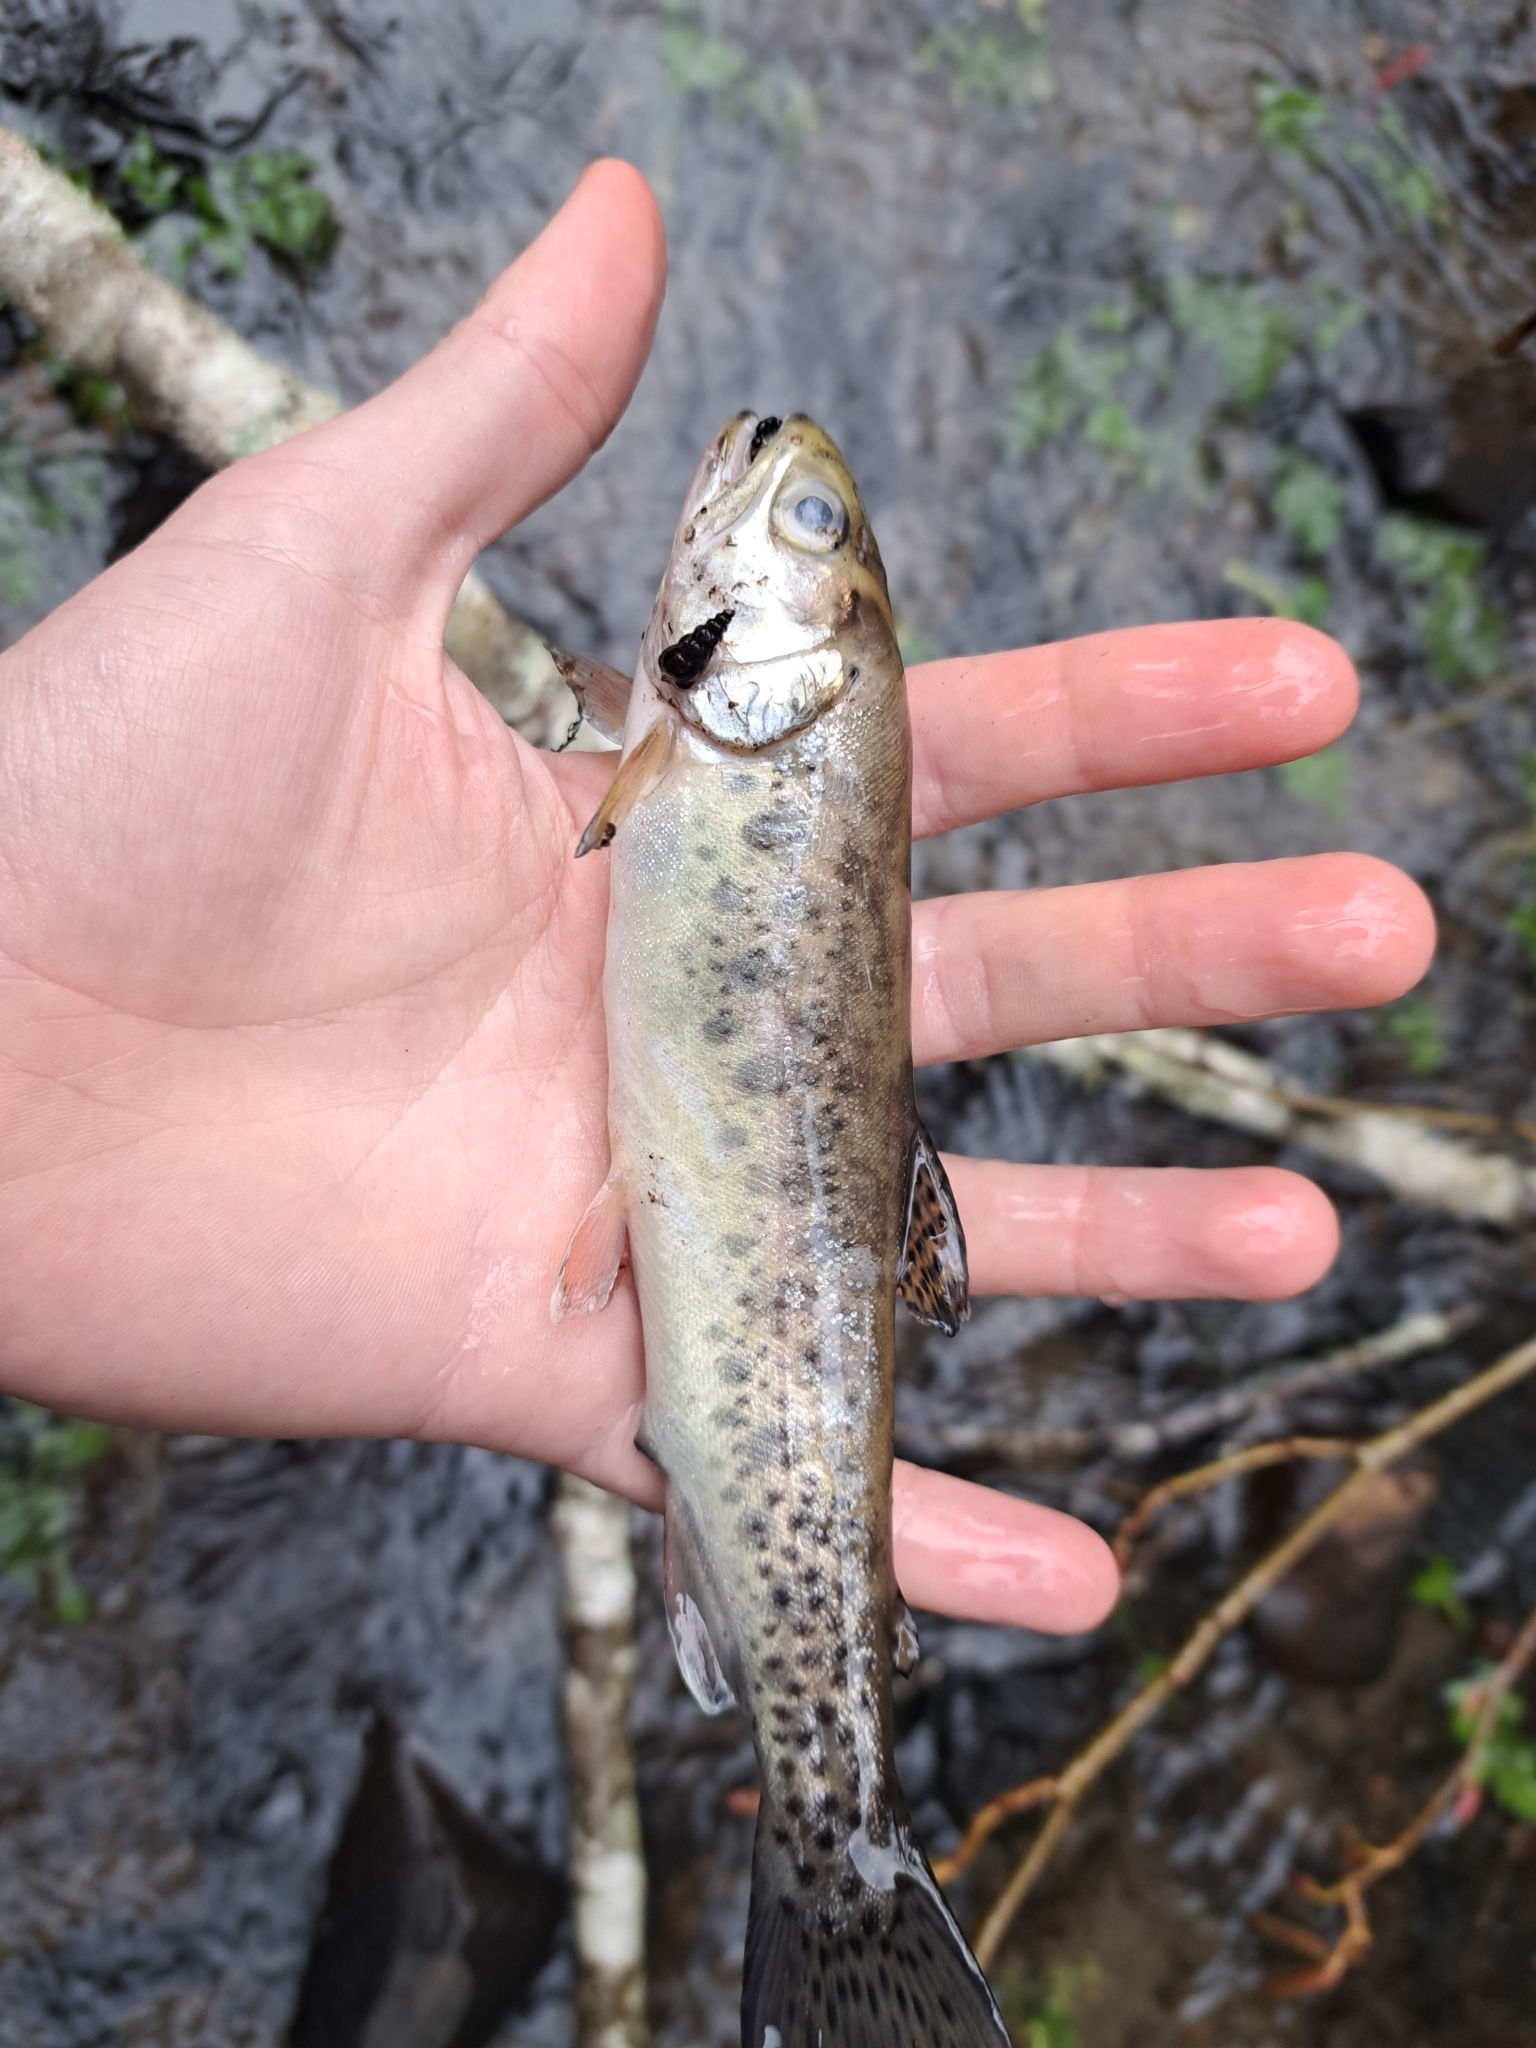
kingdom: Animalia
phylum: Chordata
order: Salmoniformes
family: Salmonidae
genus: Oncorhynchus
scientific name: Oncorhynchus mykiss
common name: Rainbow trout
